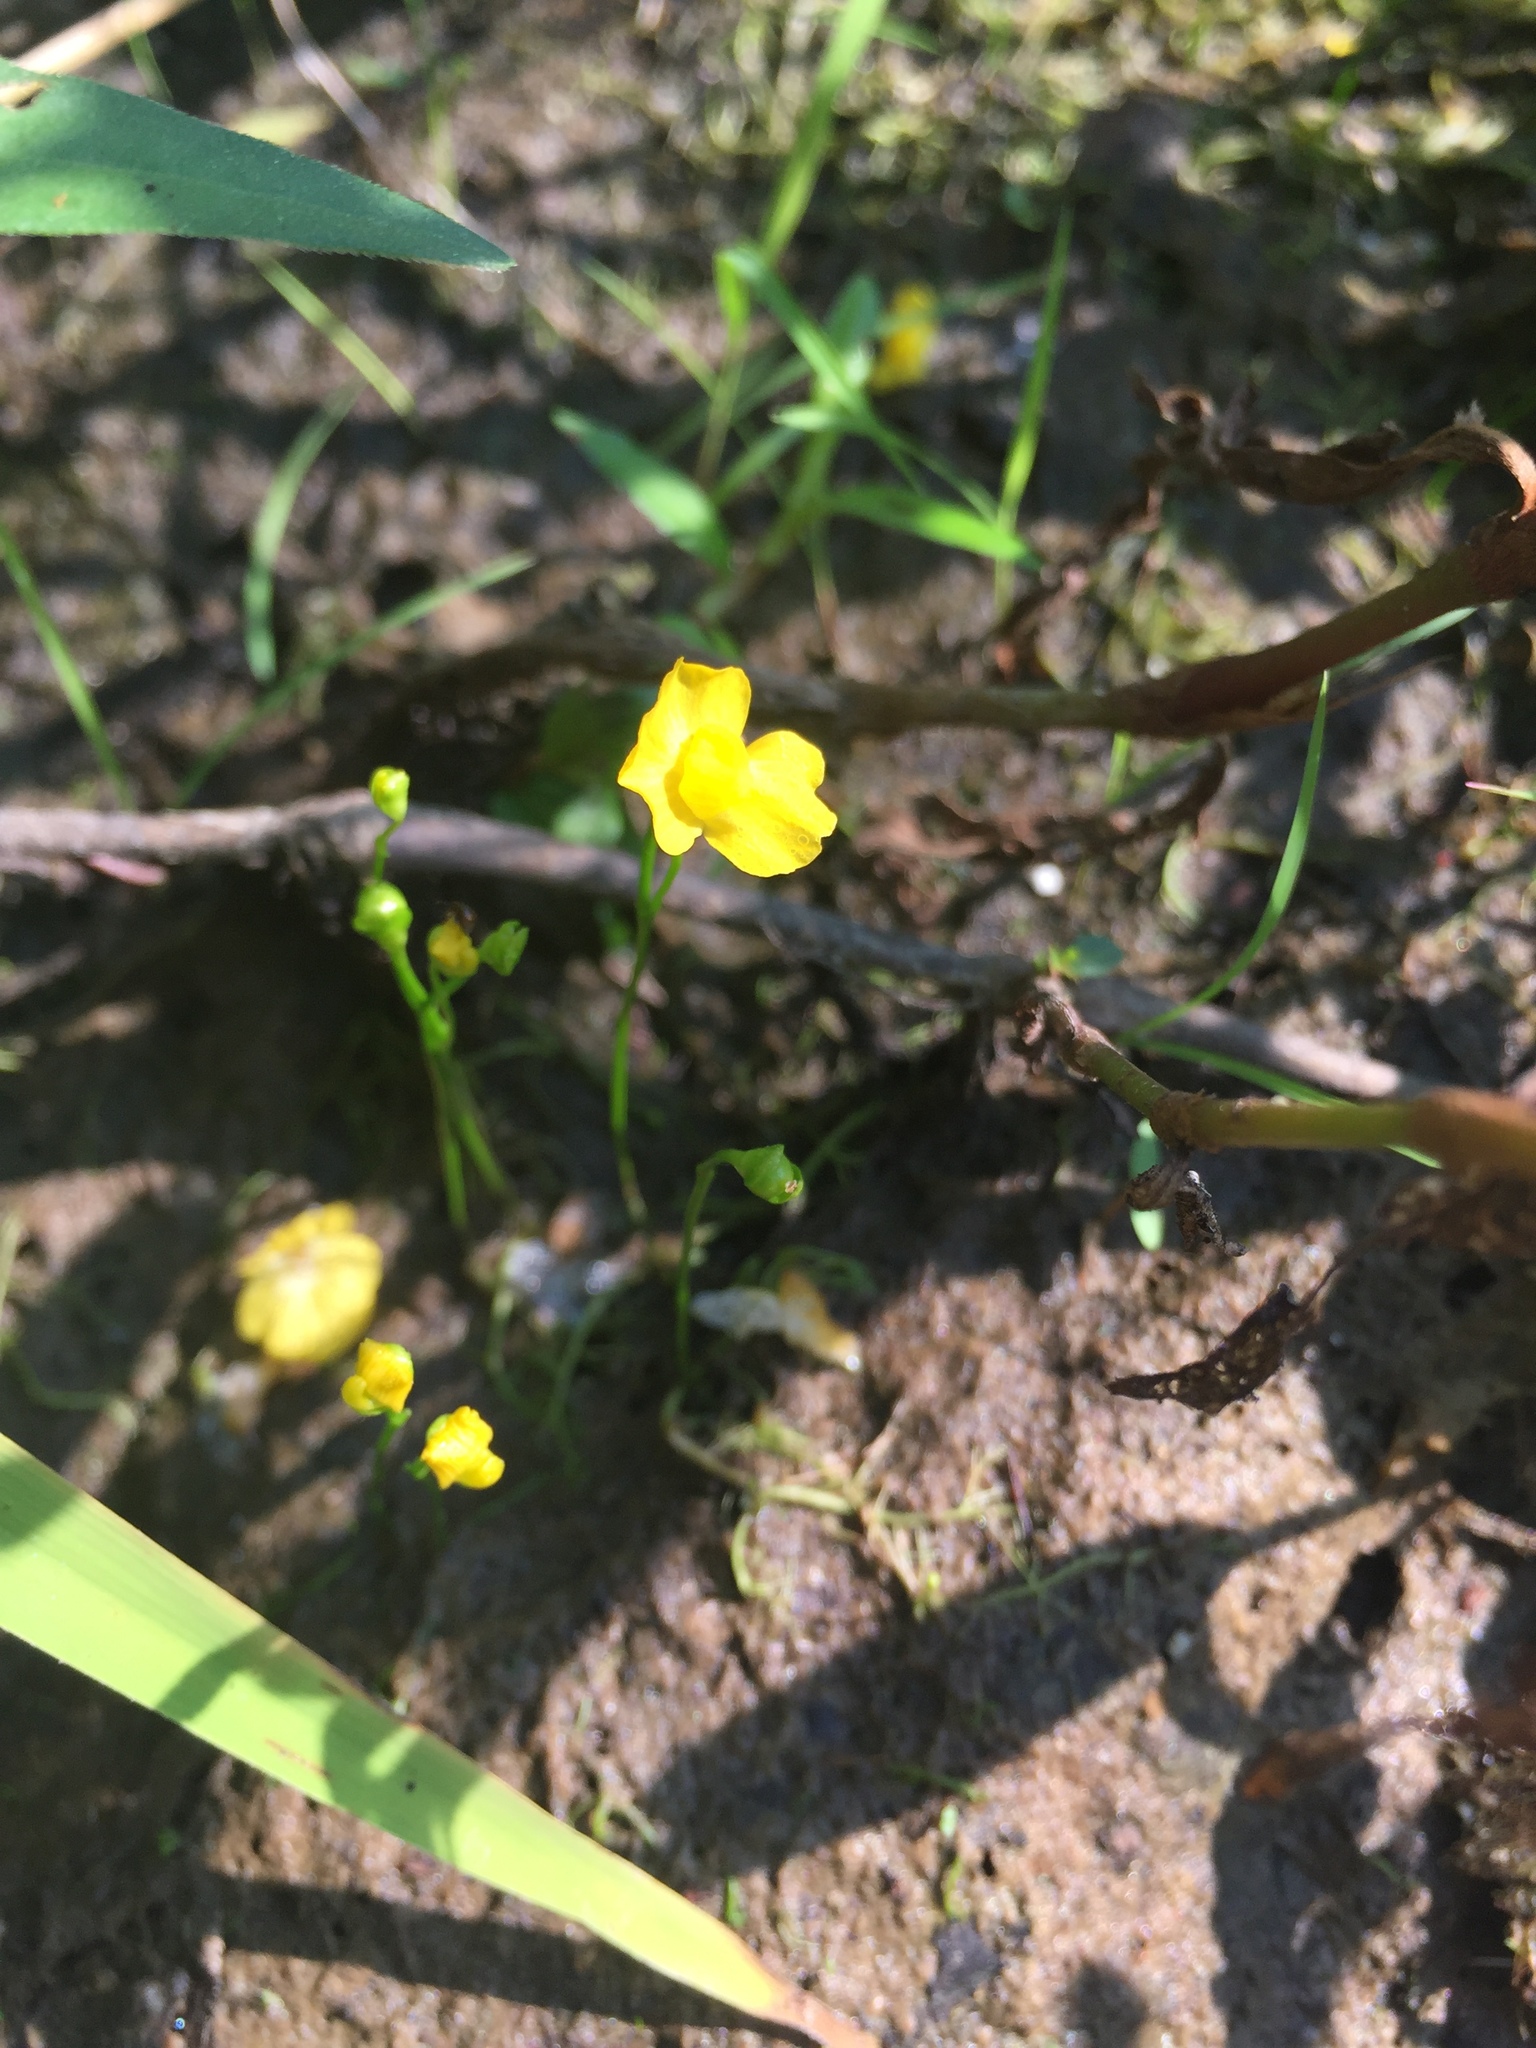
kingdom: Plantae
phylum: Tracheophyta
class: Magnoliopsida
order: Lamiales
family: Lentibulariaceae
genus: Utricularia
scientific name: Utricularia gibba
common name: Humped bladderwort
